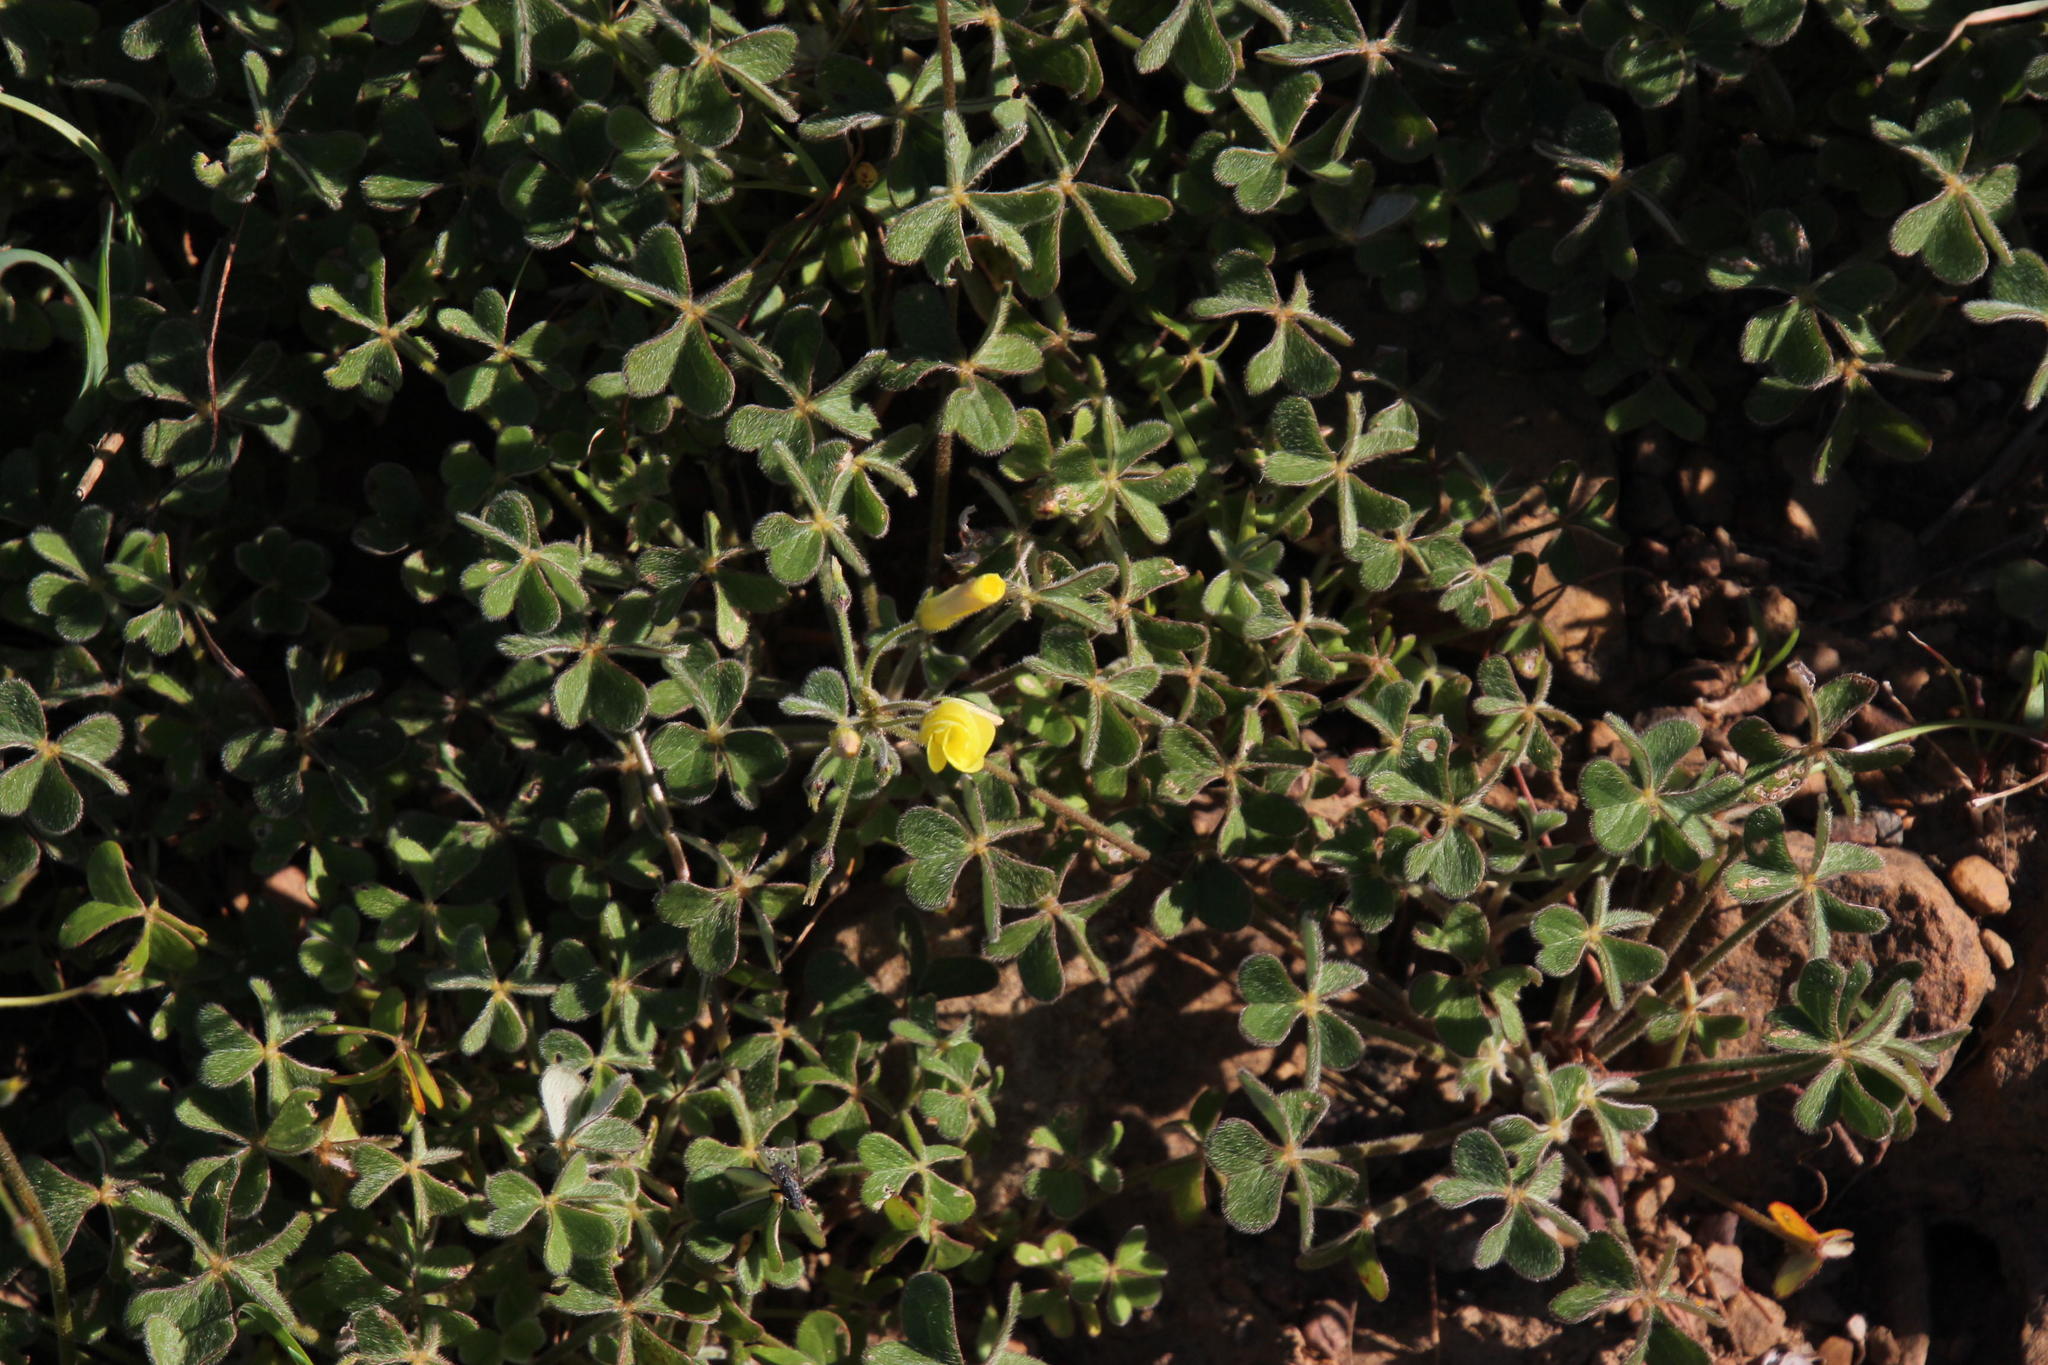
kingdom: Plantae
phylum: Tracheophyta
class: Magnoliopsida
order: Oxalidales
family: Oxalidaceae
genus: Oxalis
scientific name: Oxalis pes-caprae
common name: Bermuda-buttercup
